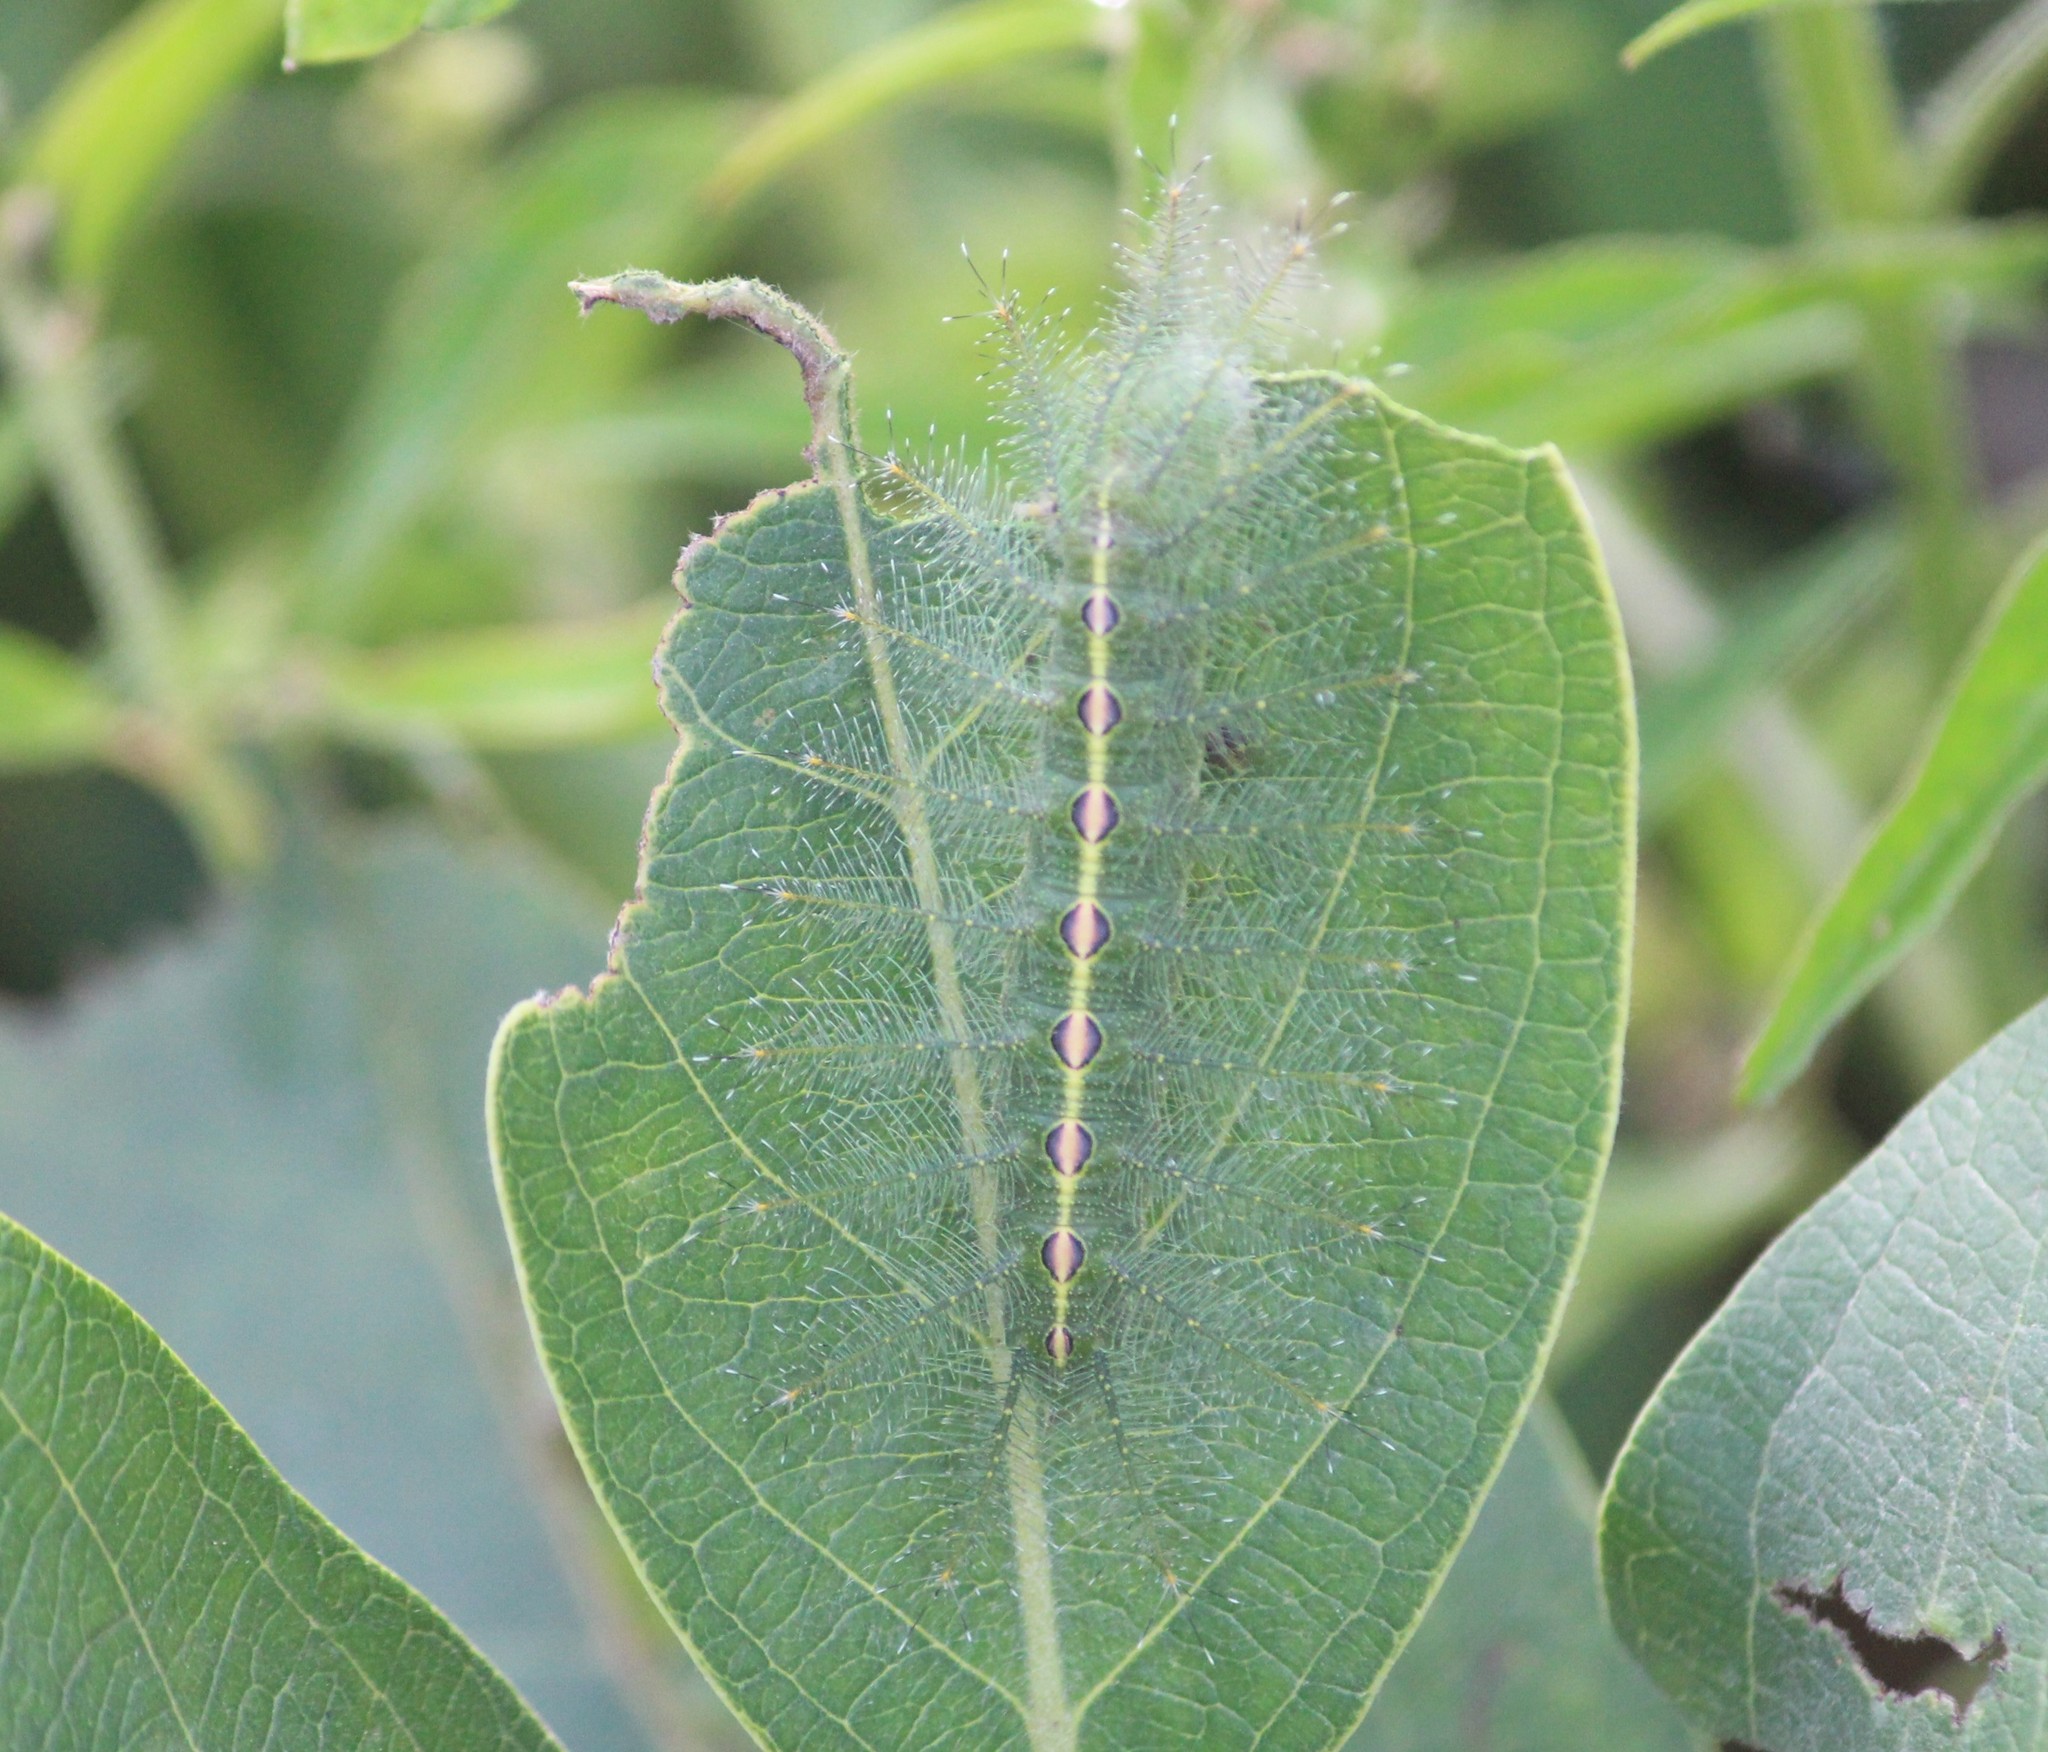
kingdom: Animalia
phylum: Arthropoda
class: Insecta
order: Lepidoptera
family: Nymphalidae
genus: Euthalia
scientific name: Euthalia nais
